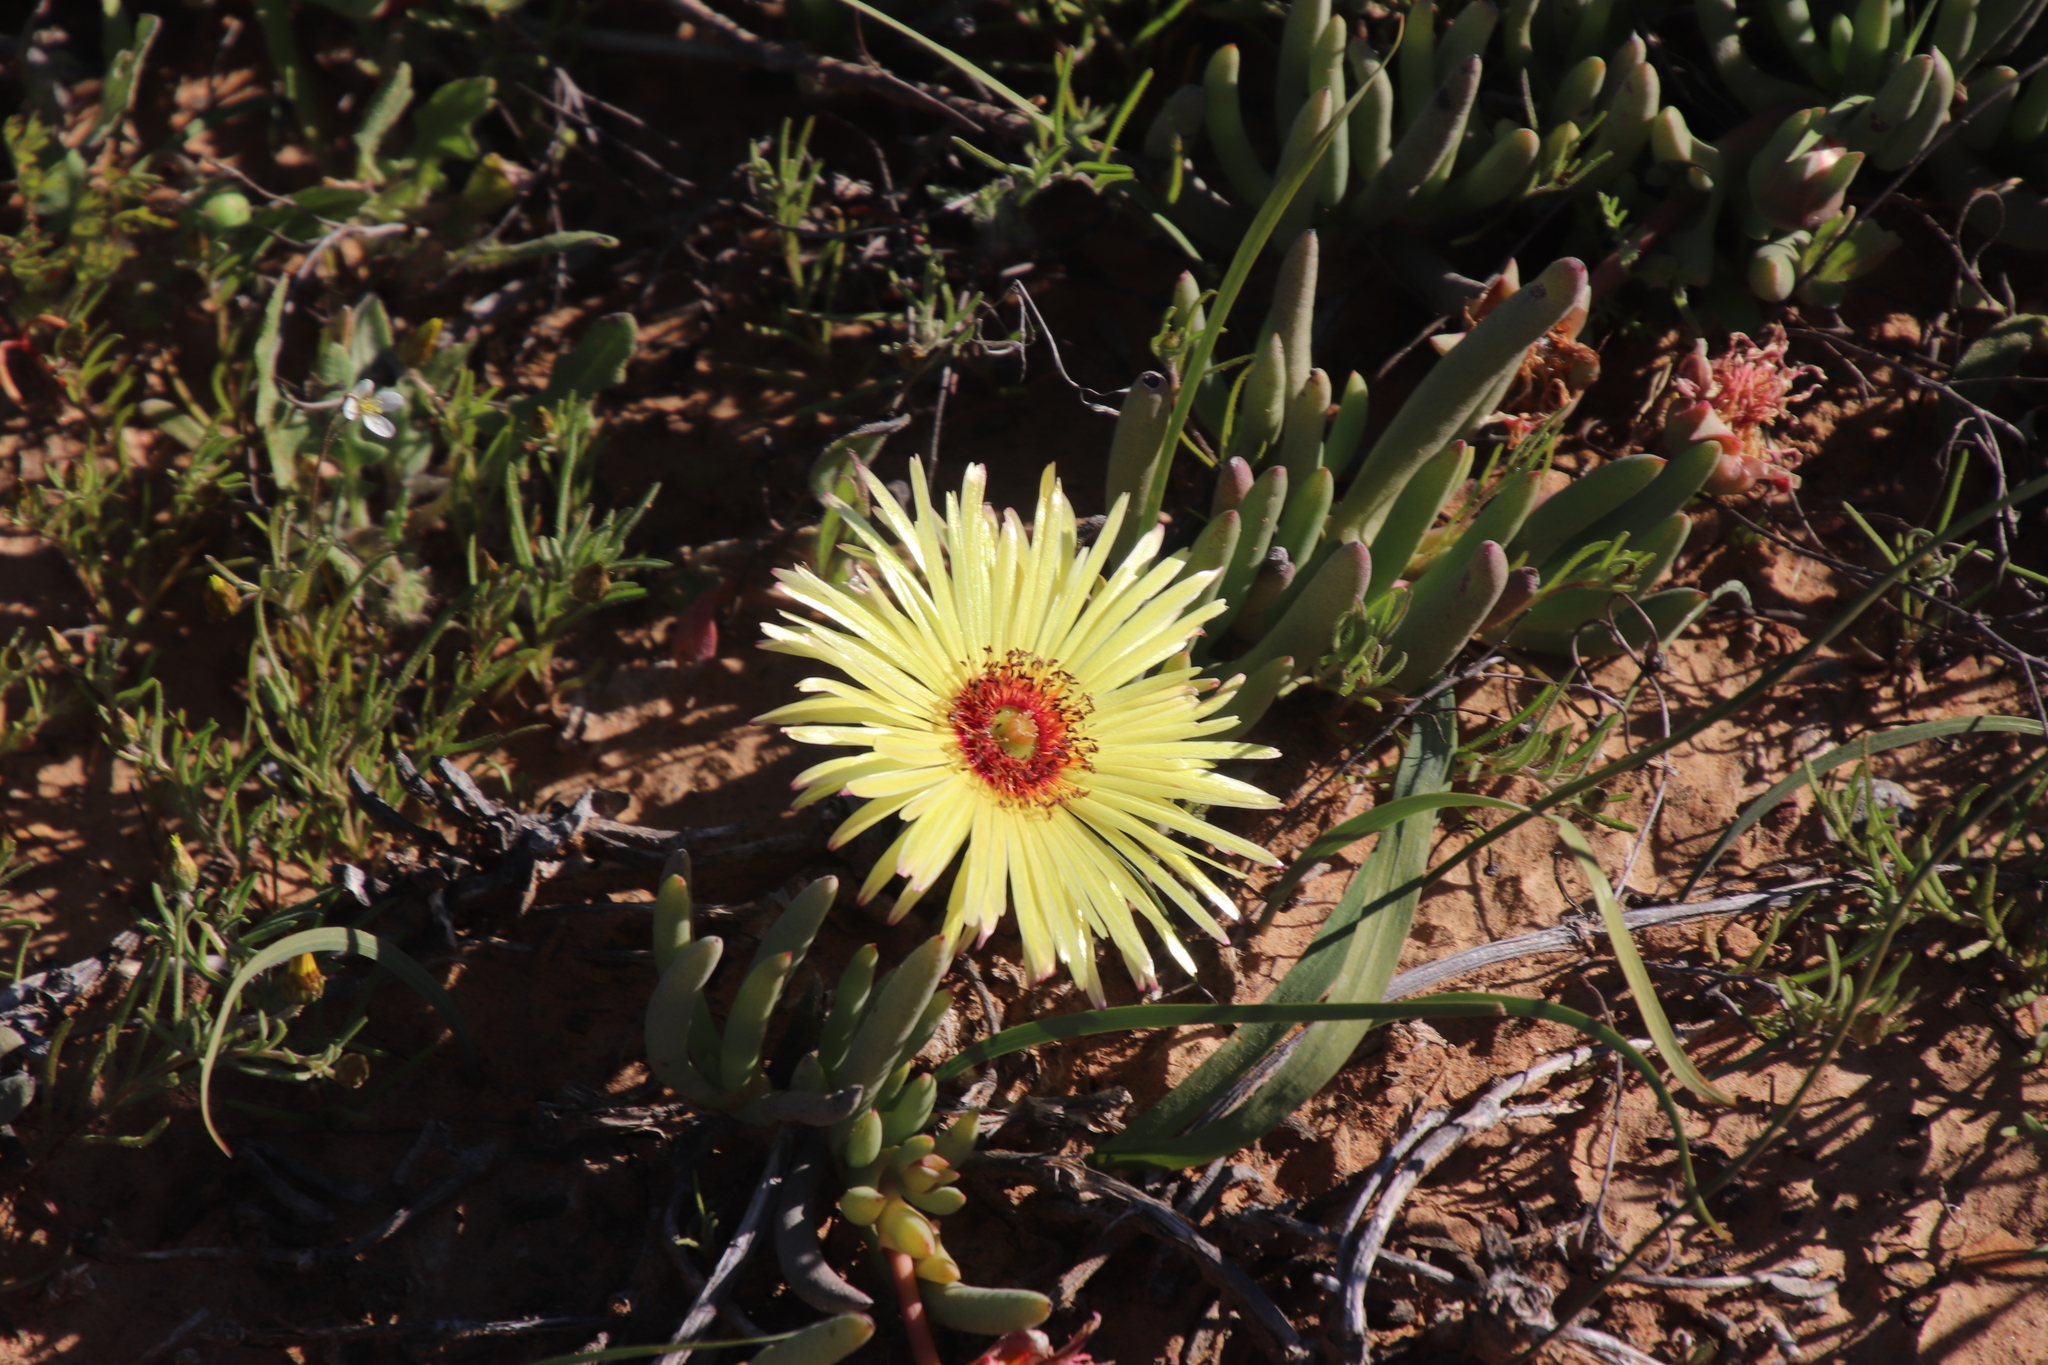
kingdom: Plantae
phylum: Tracheophyta
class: Magnoliopsida
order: Caryophyllales
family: Aizoaceae
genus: Cephalophyllum
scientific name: Cephalophyllum pillansii
